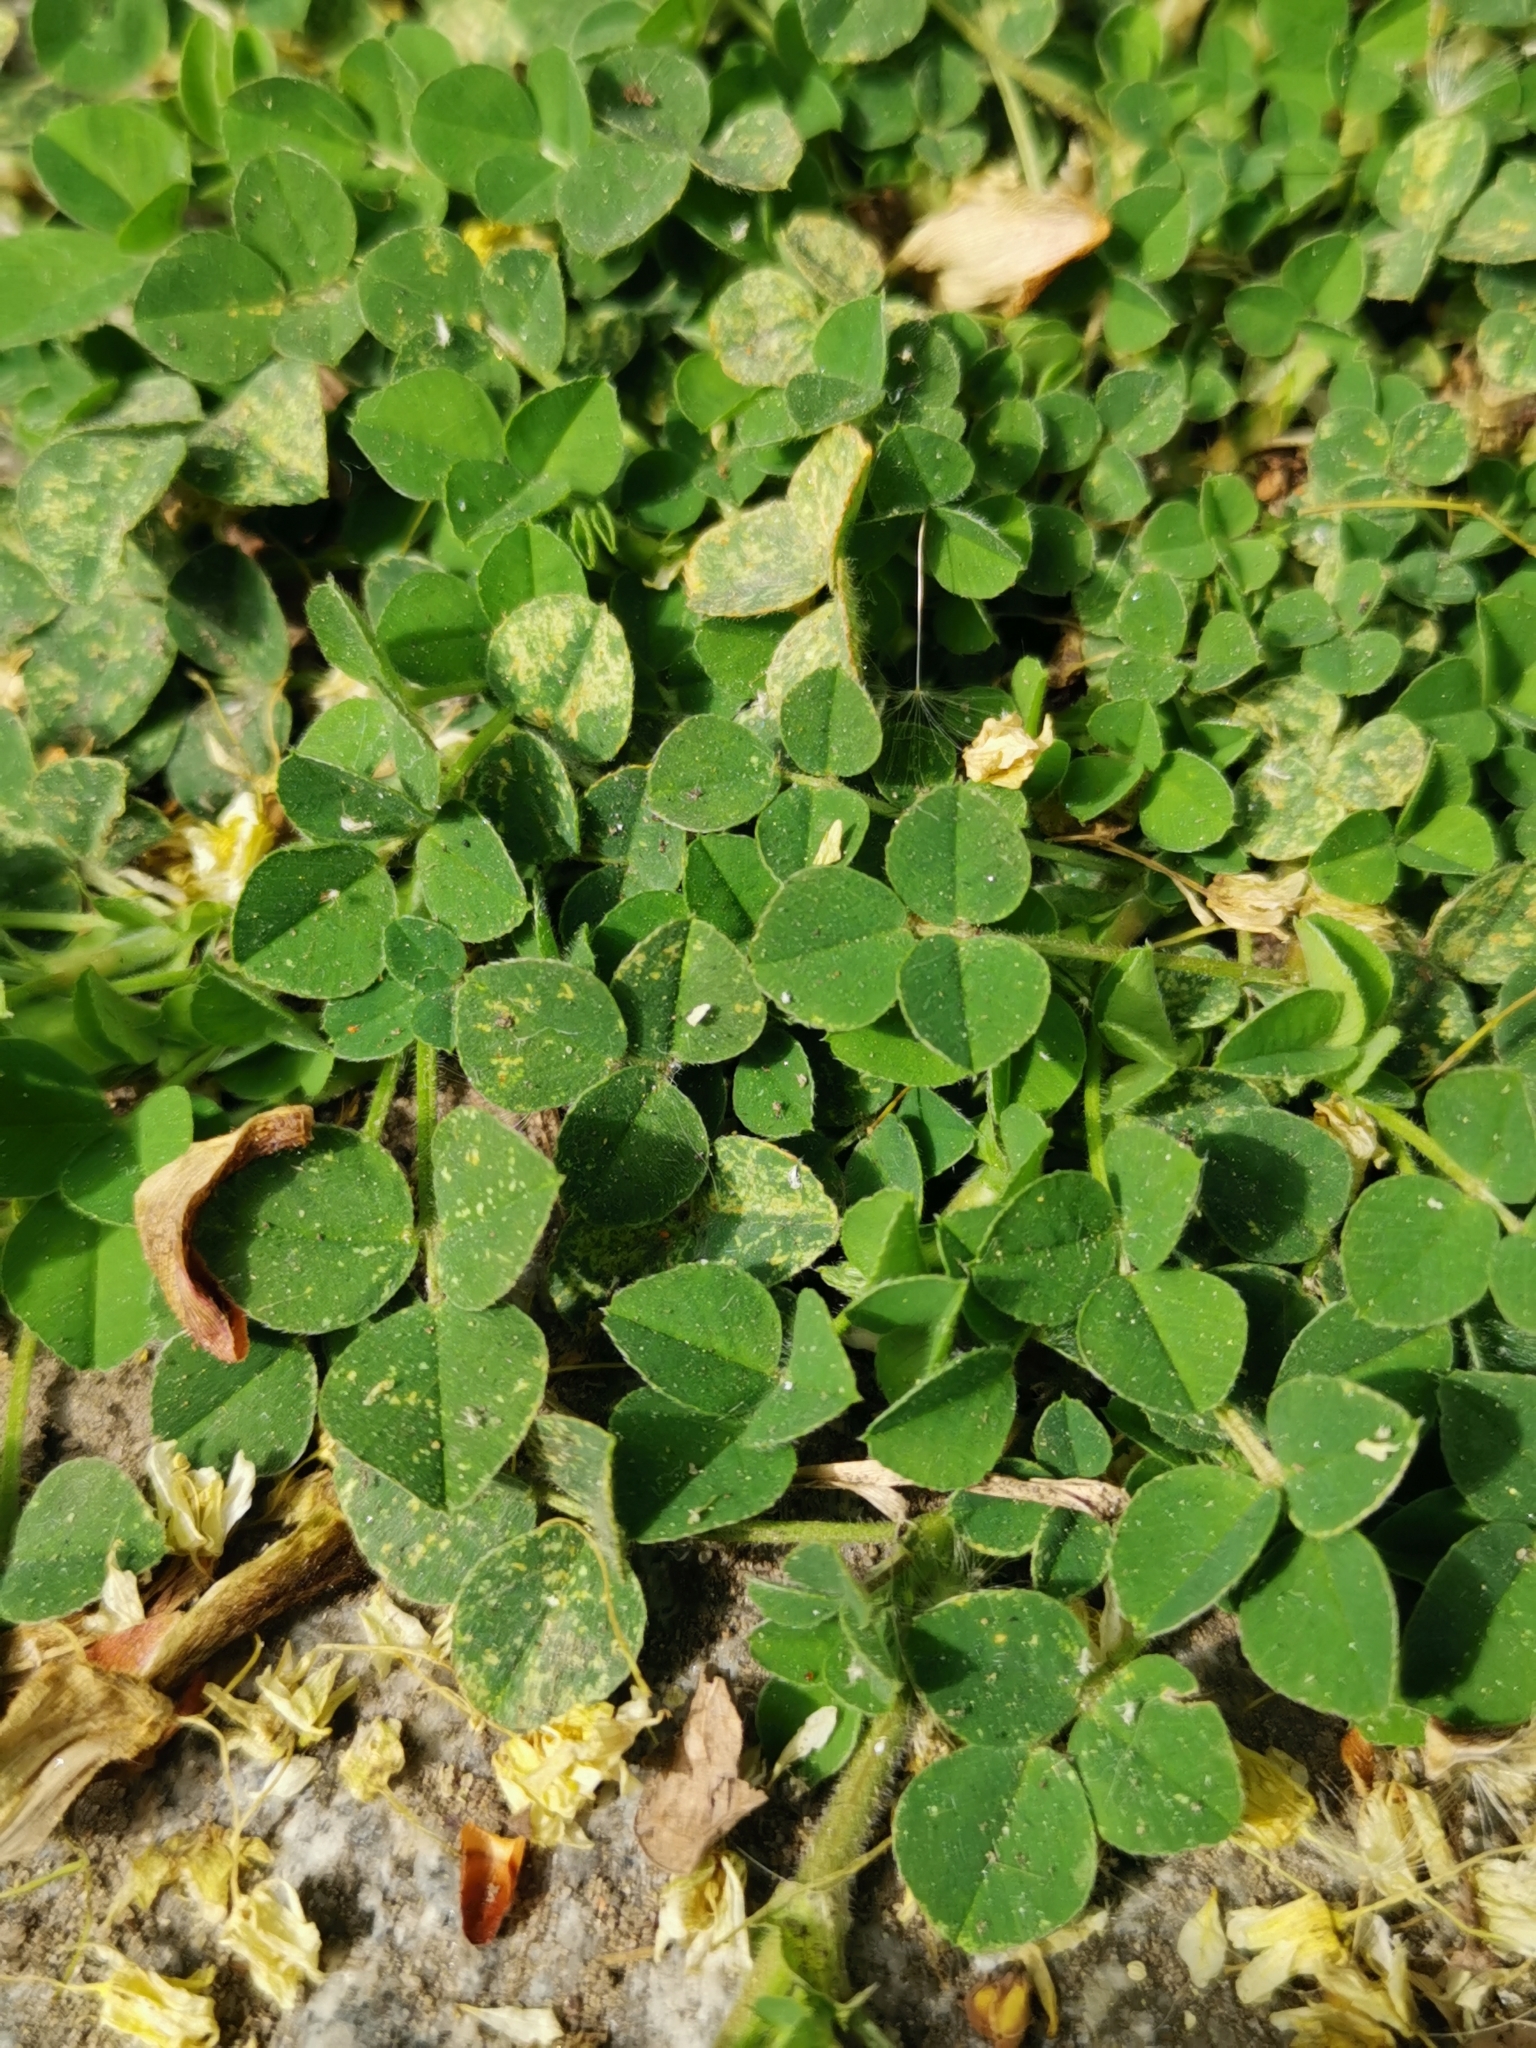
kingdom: Plantae
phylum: Tracheophyta
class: Magnoliopsida
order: Fabales
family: Fabaceae
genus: Medicago
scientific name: Medicago lupulina
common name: Black medick
